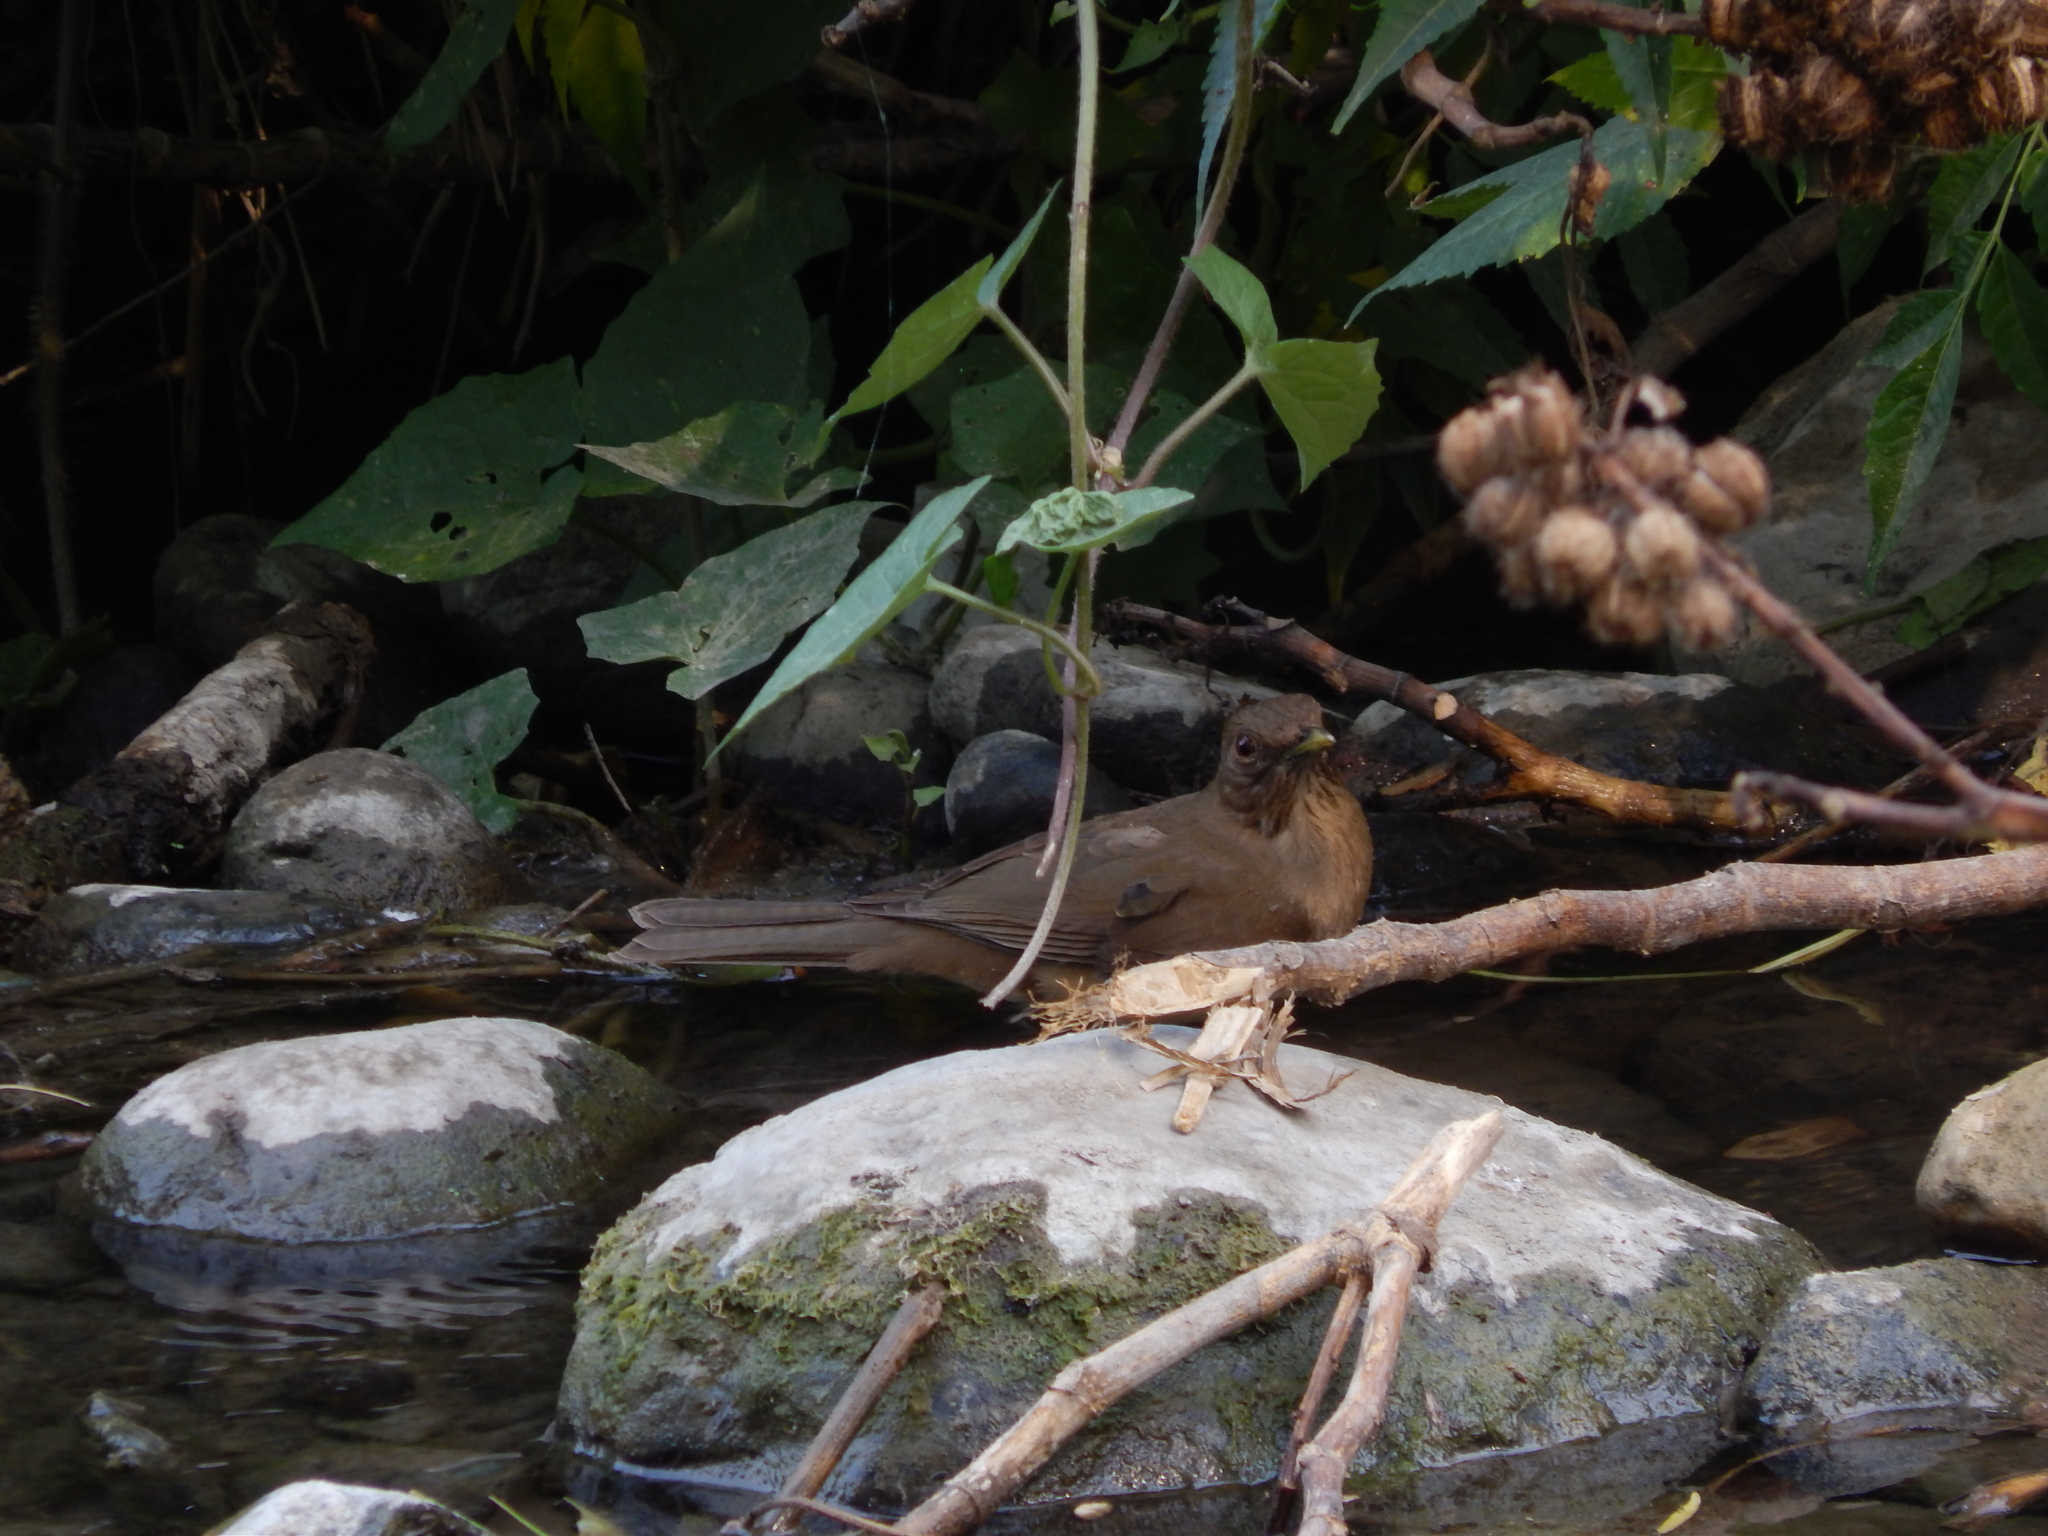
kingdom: Animalia
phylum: Chordata
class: Aves
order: Passeriformes
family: Turdidae
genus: Turdus
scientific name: Turdus grayi
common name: Clay-colored thrush
